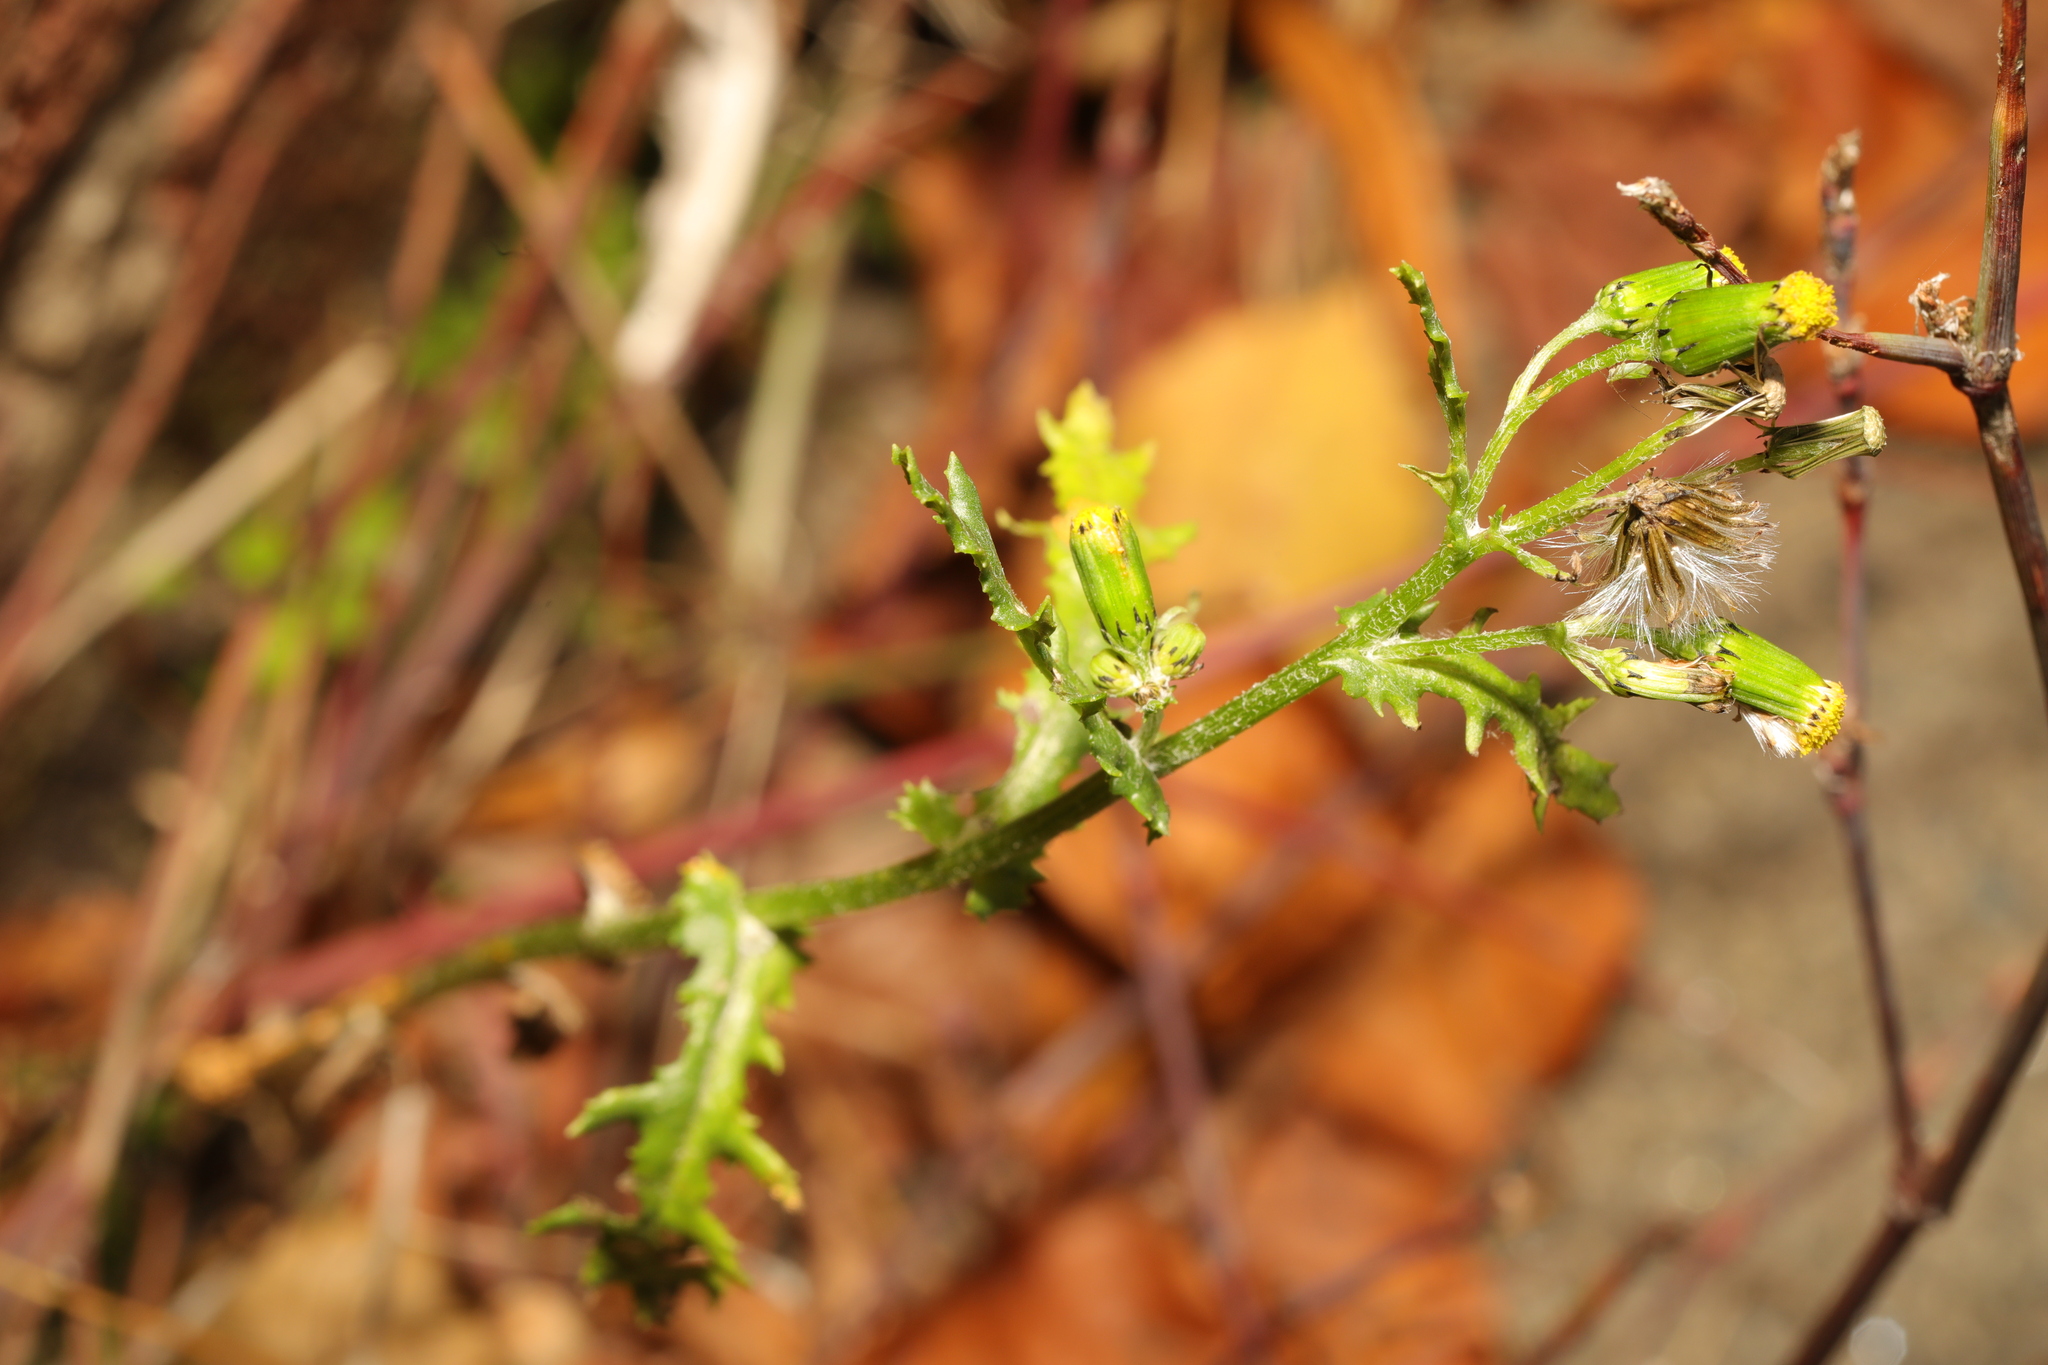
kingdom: Plantae
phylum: Tracheophyta
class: Magnoliopsida
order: Asterales
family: Asteraceae
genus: Senecio
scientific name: Senecio vulgaris
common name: Old-man-in-the-spring
